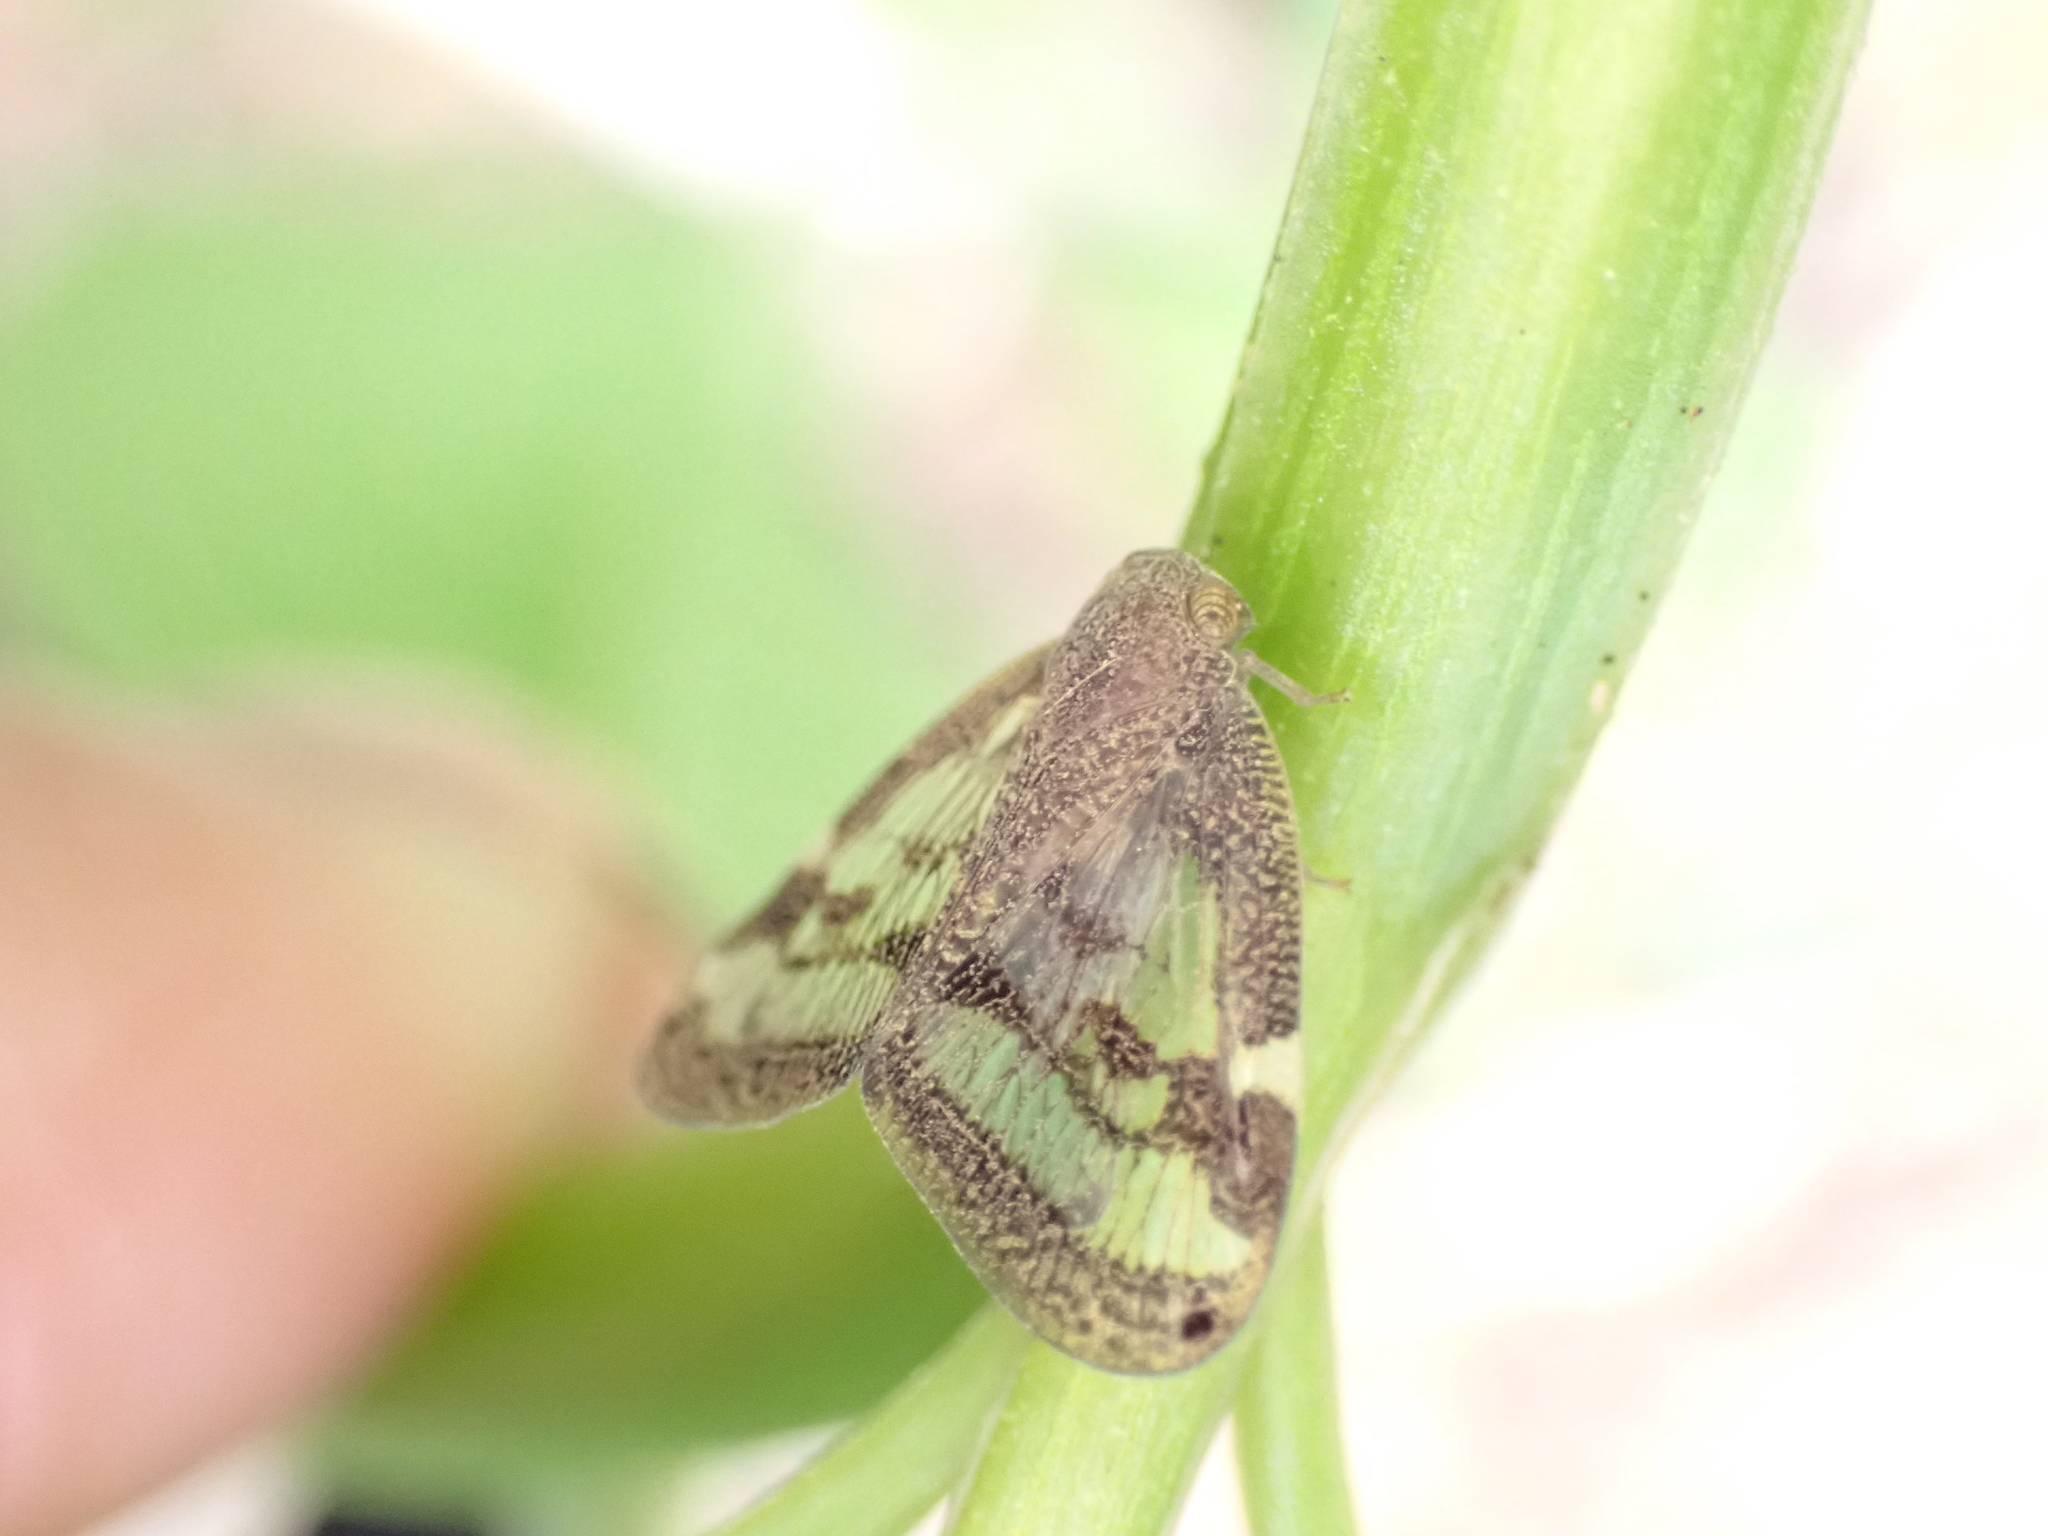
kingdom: Animalia
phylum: Arthropoda
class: Insecta
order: Hemiptera
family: Ricaniidae
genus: Scolypopa
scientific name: Scolypopa australis
